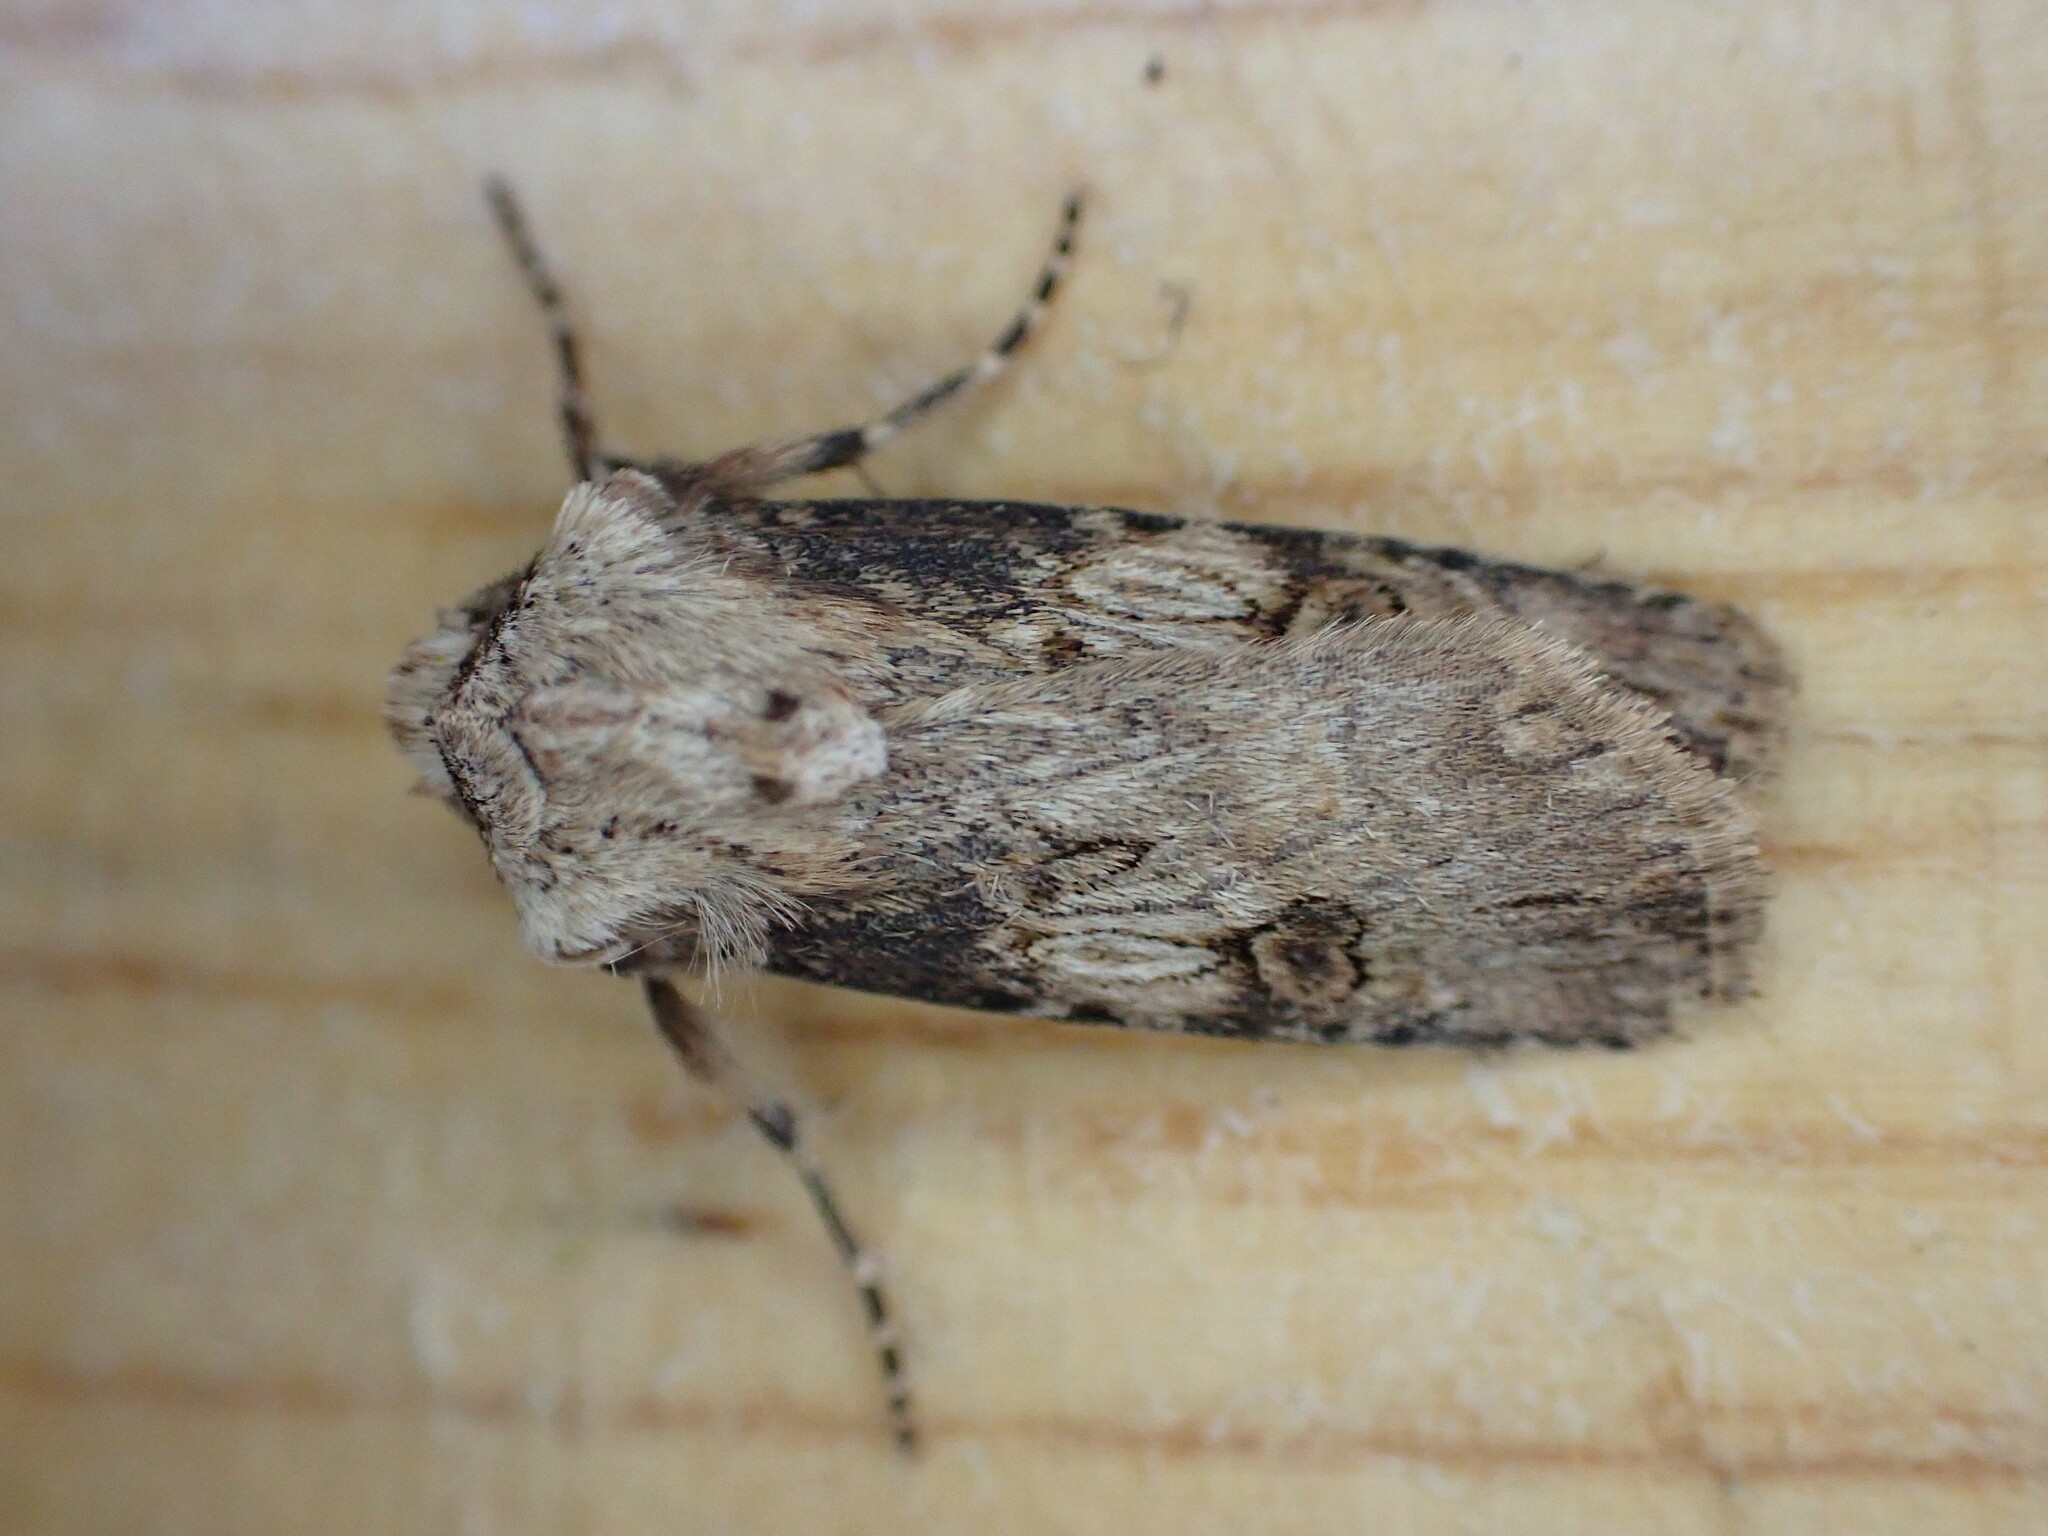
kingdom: Animalia
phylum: Arthropoda
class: Insecta
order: Lepidoptera
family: Noctuidae
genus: Agrotis
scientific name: Agrotis puta
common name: Shuttle-shaped dart
